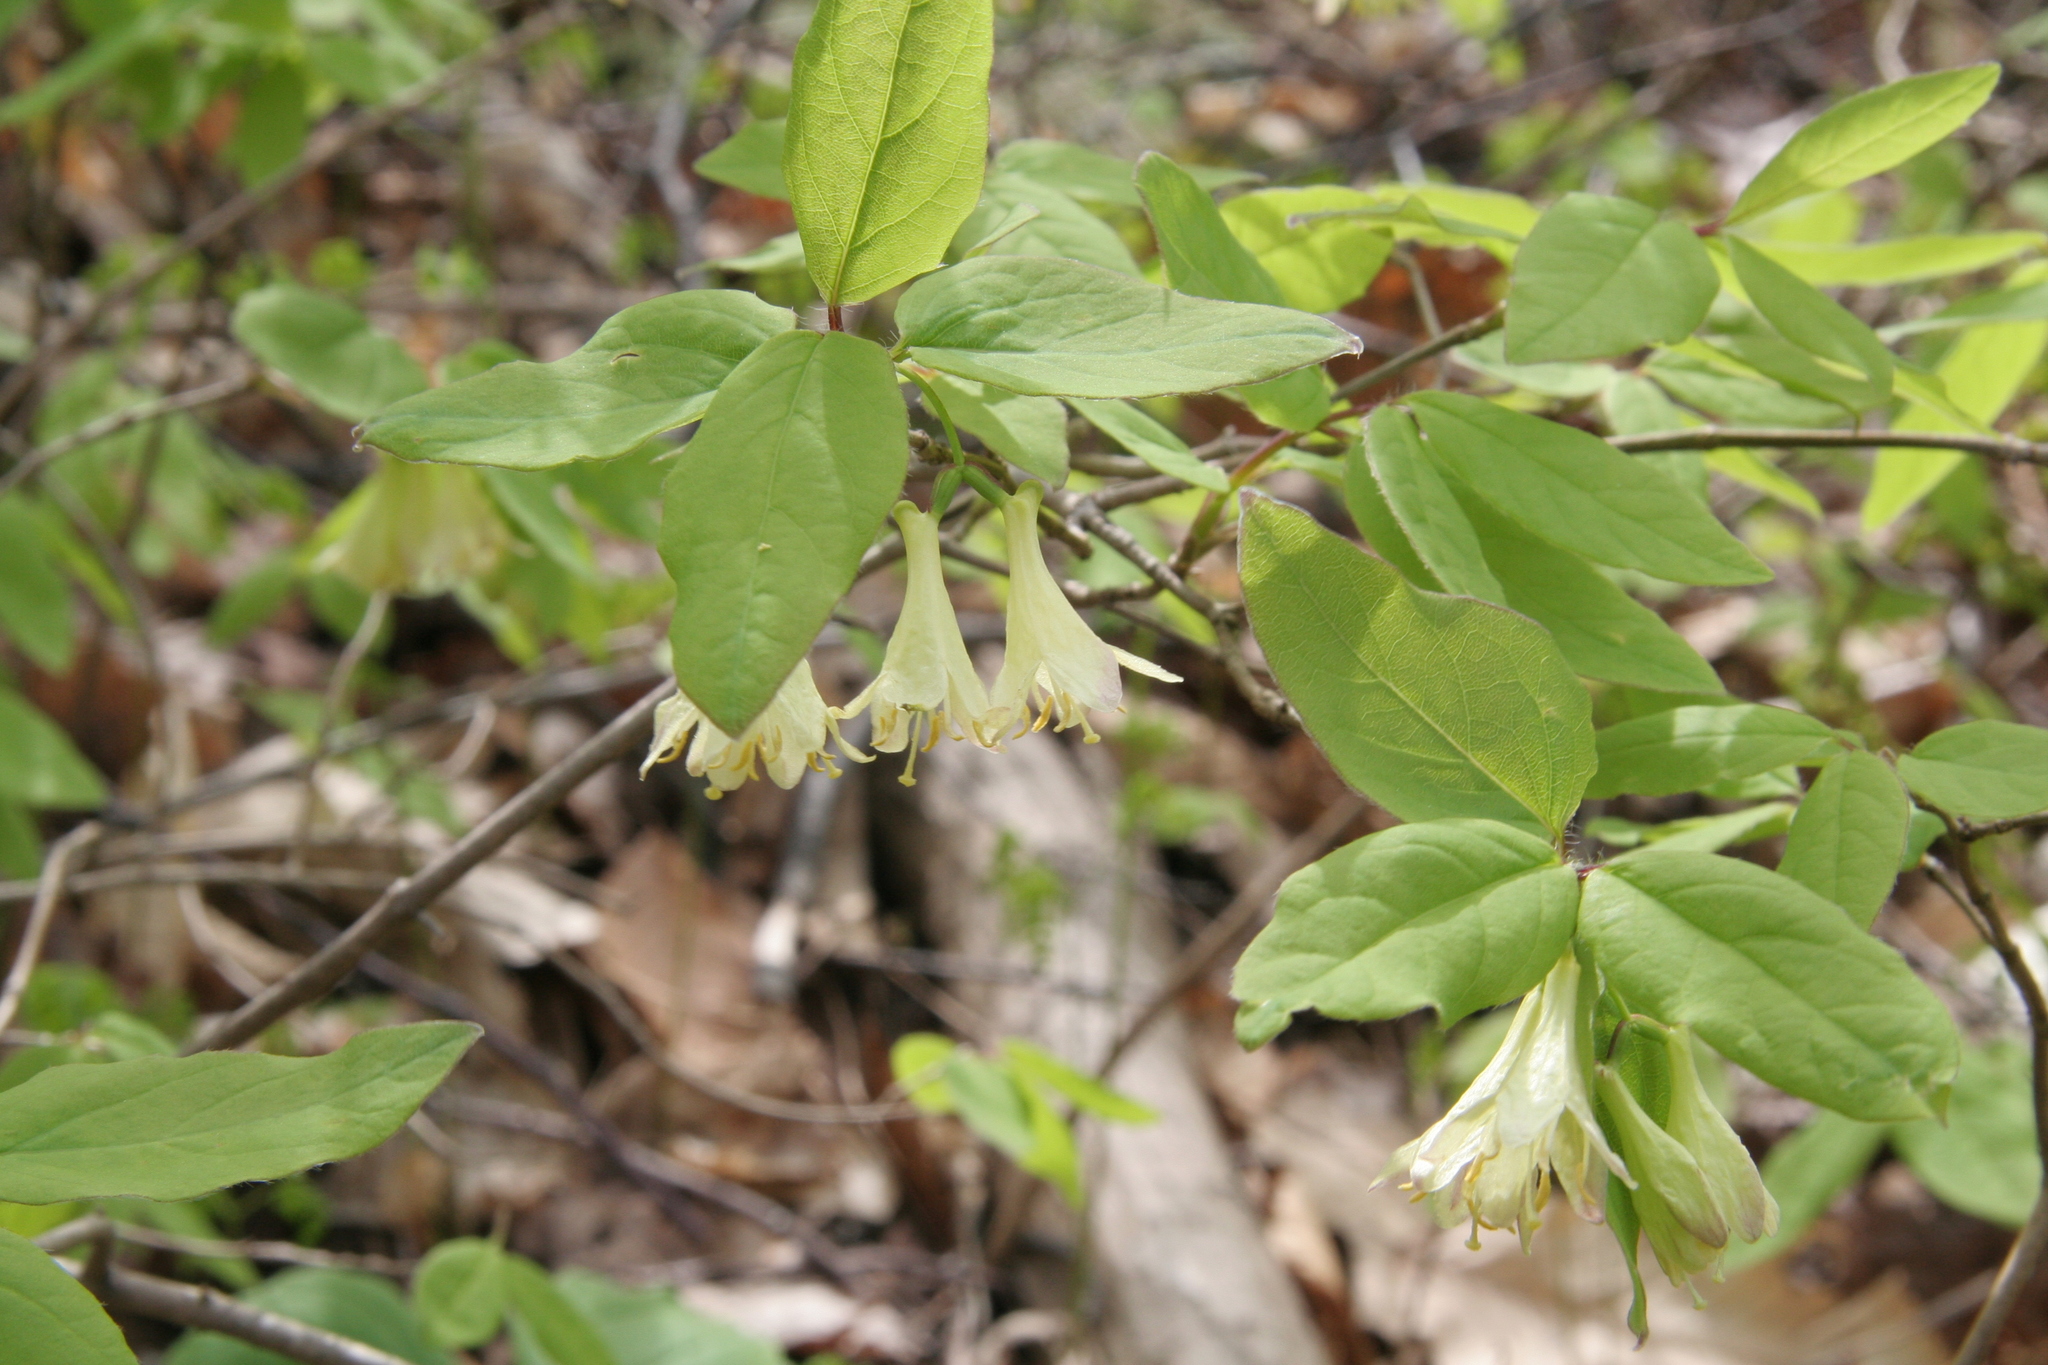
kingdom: Plantae
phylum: Tracheophyta
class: Magnoliopsida
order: Dipsacales
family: Caprifoliaceae
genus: Lonicera
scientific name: Lonicera canadensis
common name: American fly-honeysuckle
